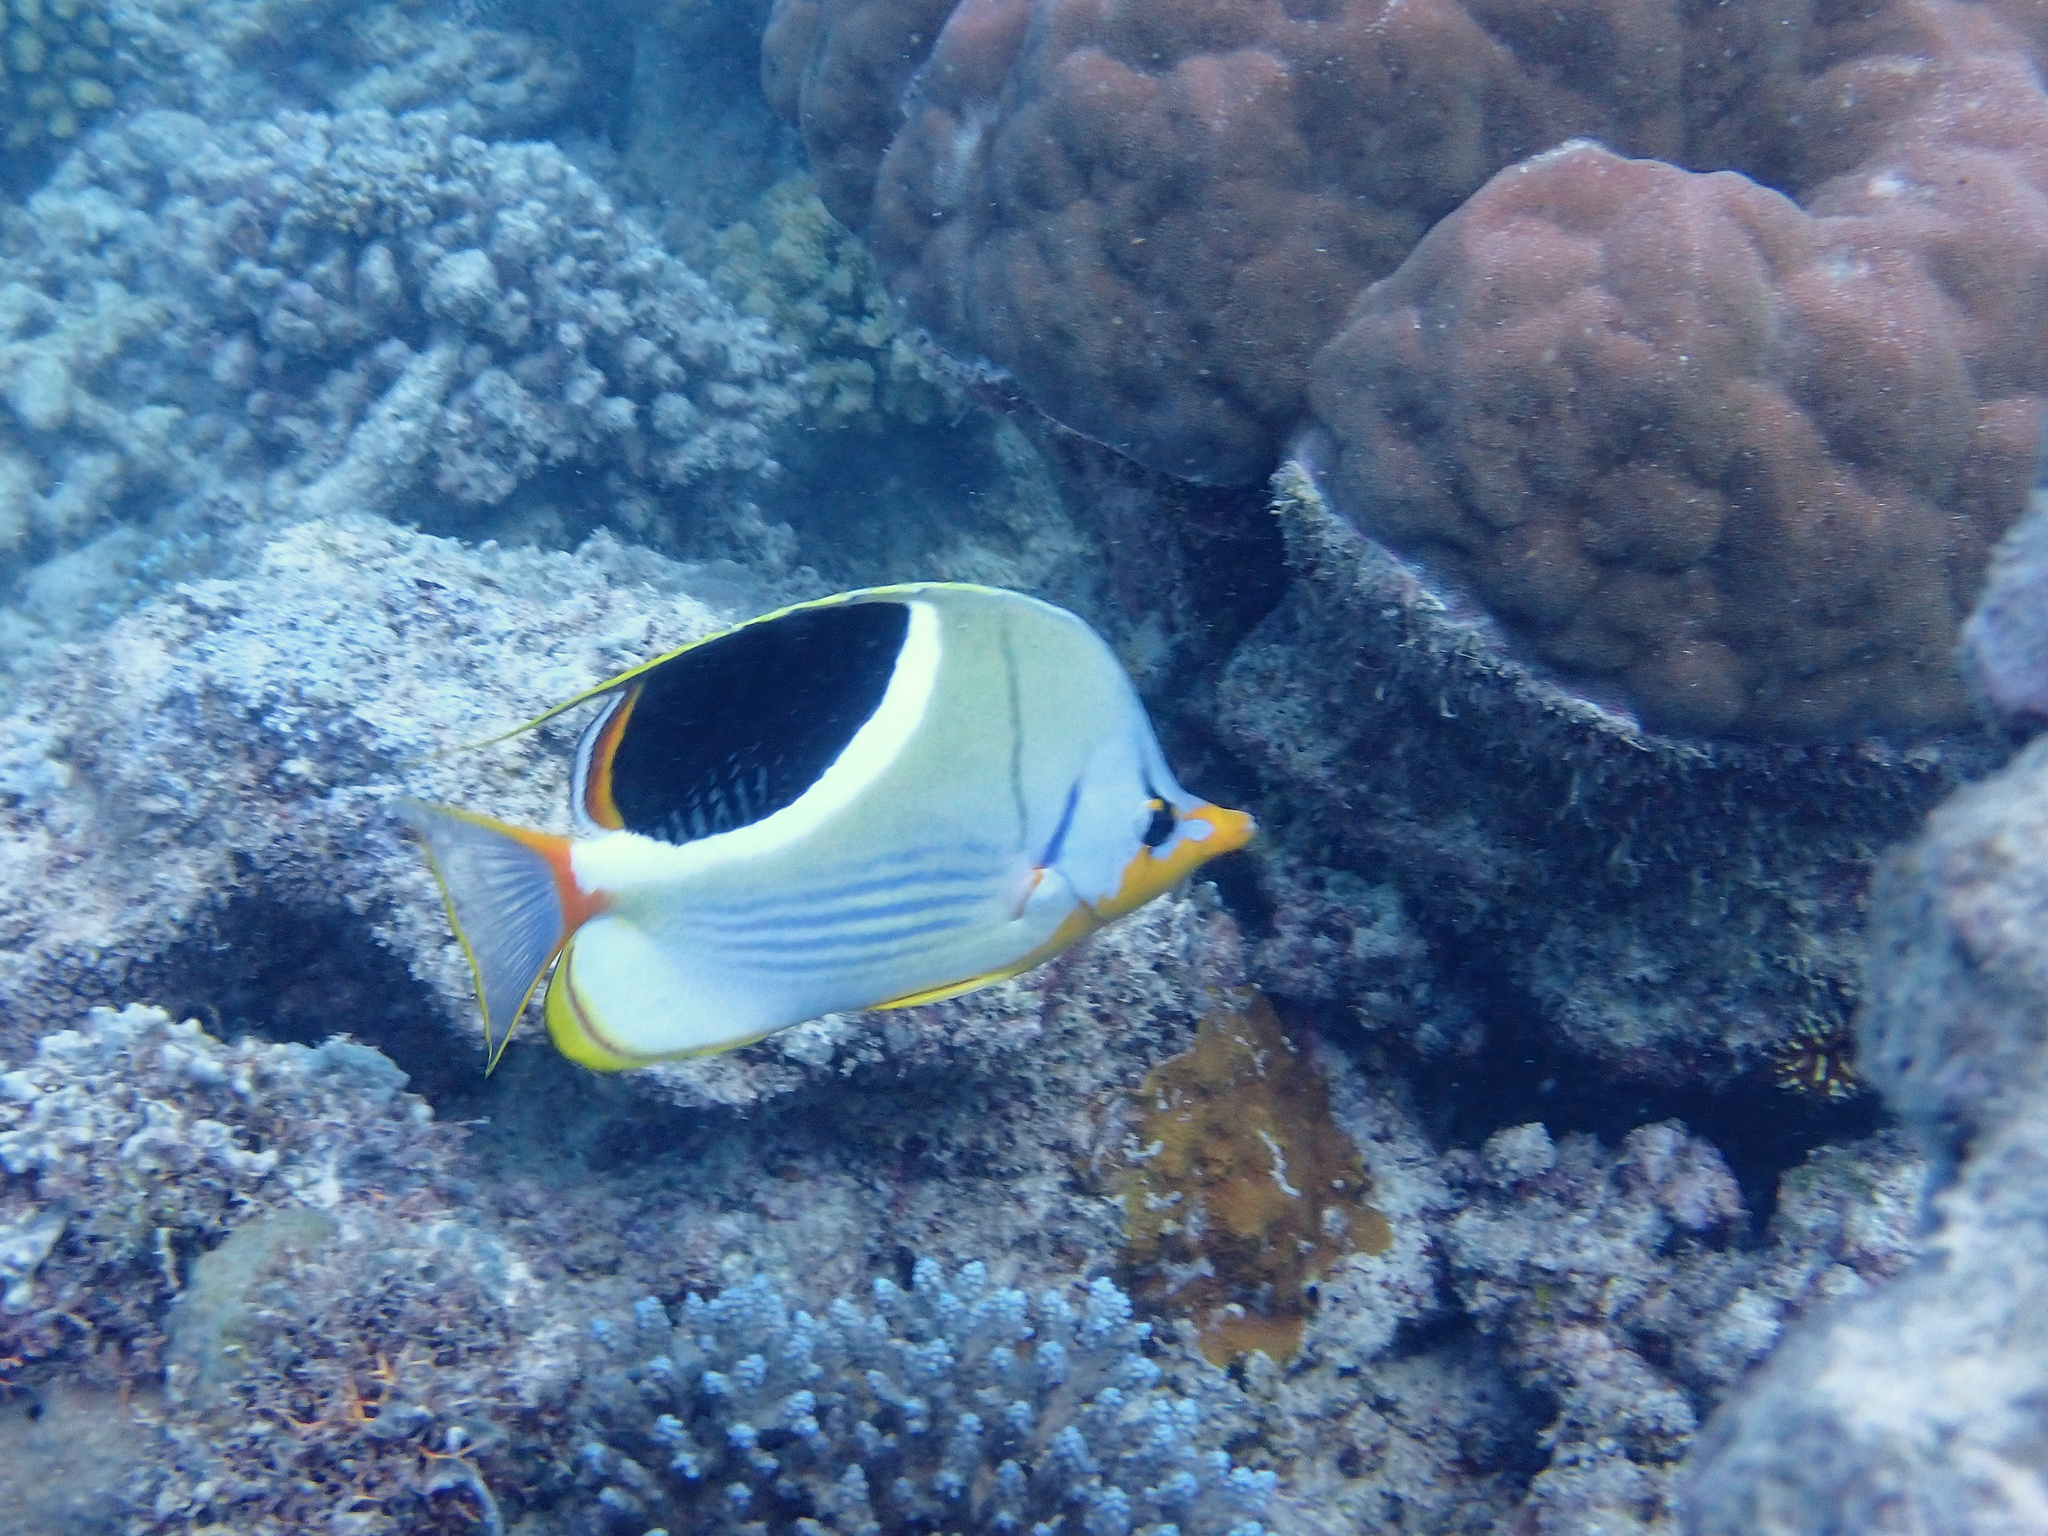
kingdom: Animalia
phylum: Chordata
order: Perciformes
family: Chaetodontidae
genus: Chaetodon
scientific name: Chaetodon ephippium
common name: Saddled butterflyfish
